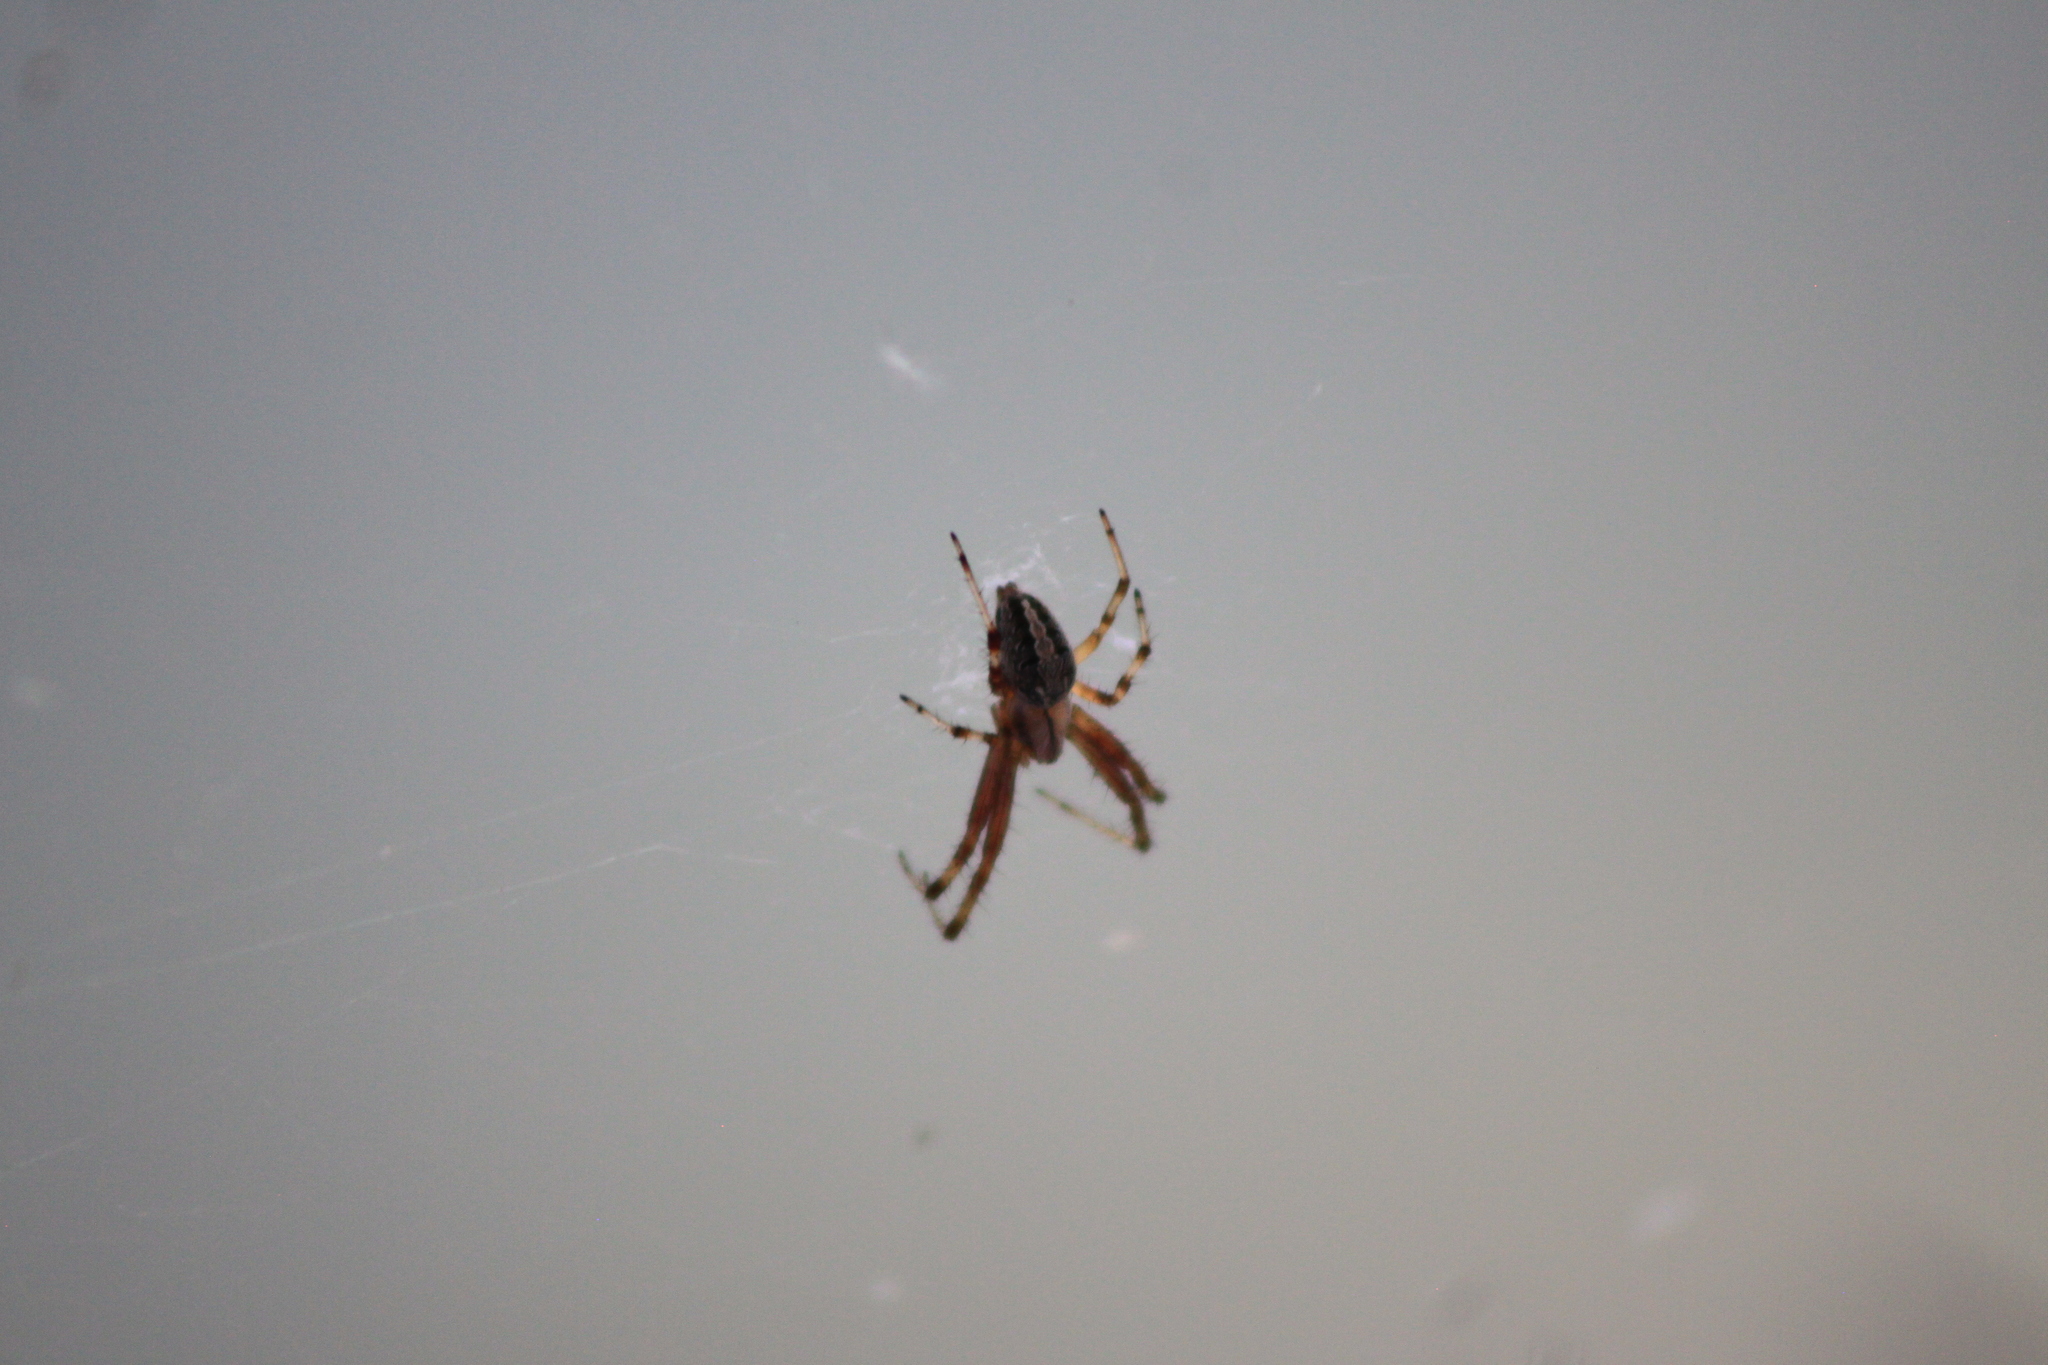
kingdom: Animalia
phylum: Arthropoda
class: Arachnida
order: Araneae
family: Araneidae
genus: Neoscona
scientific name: Neoscona oaxacensis
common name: Orb weavers
